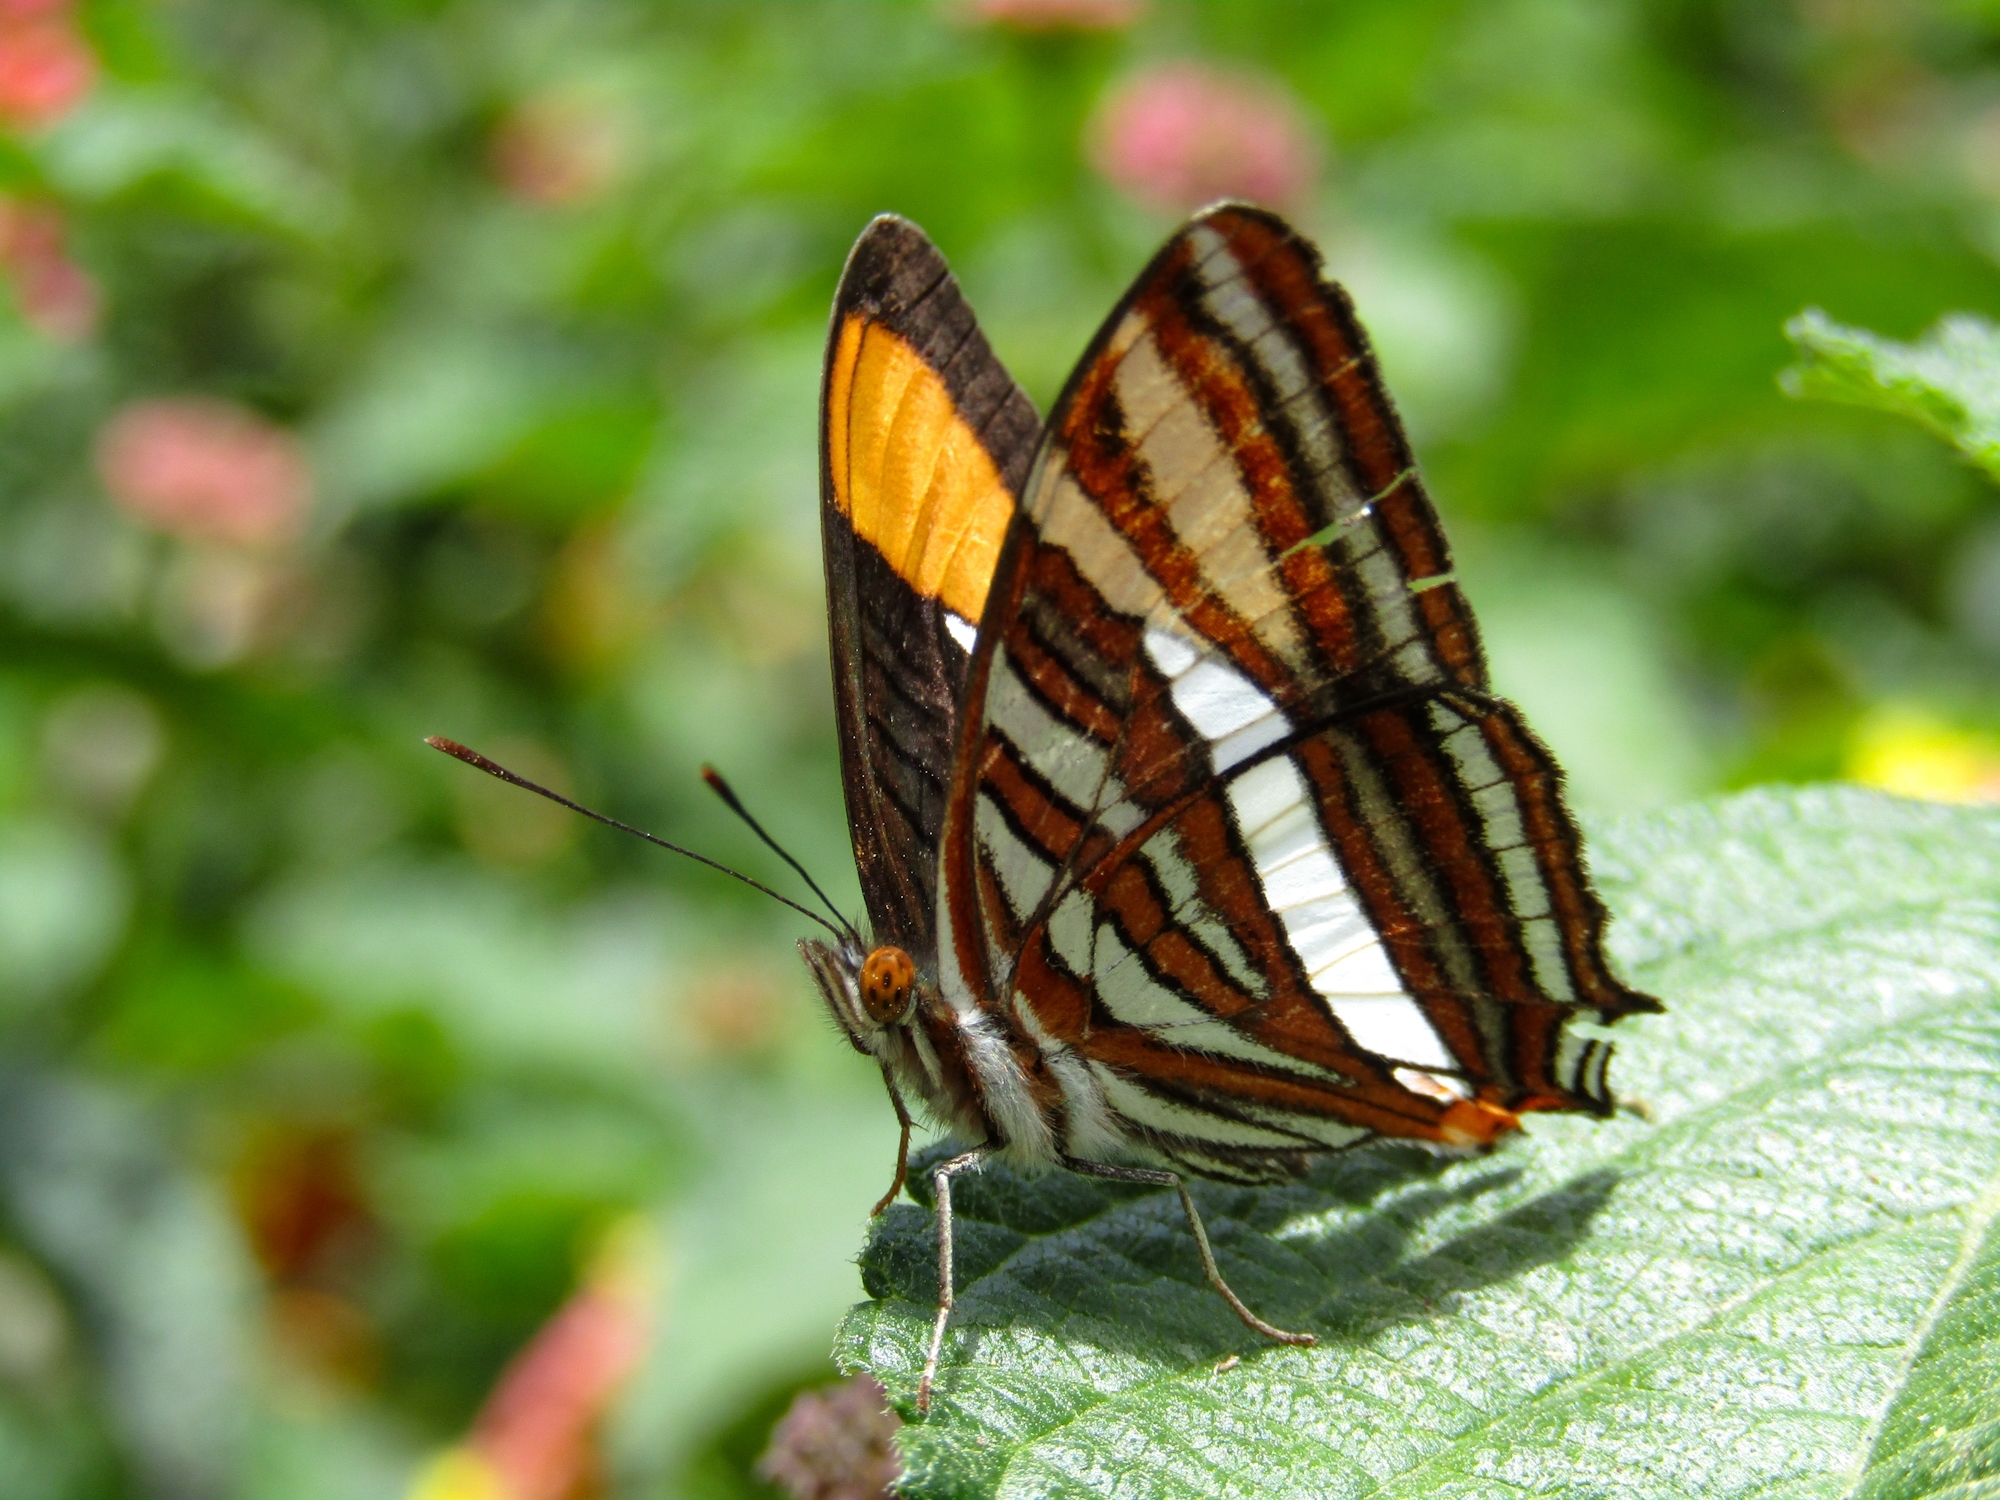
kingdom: Animalia
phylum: Arthropoda
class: Insecta
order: Lepidoptera
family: Nymphalidae
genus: Limenitis
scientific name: Limenitis syma
